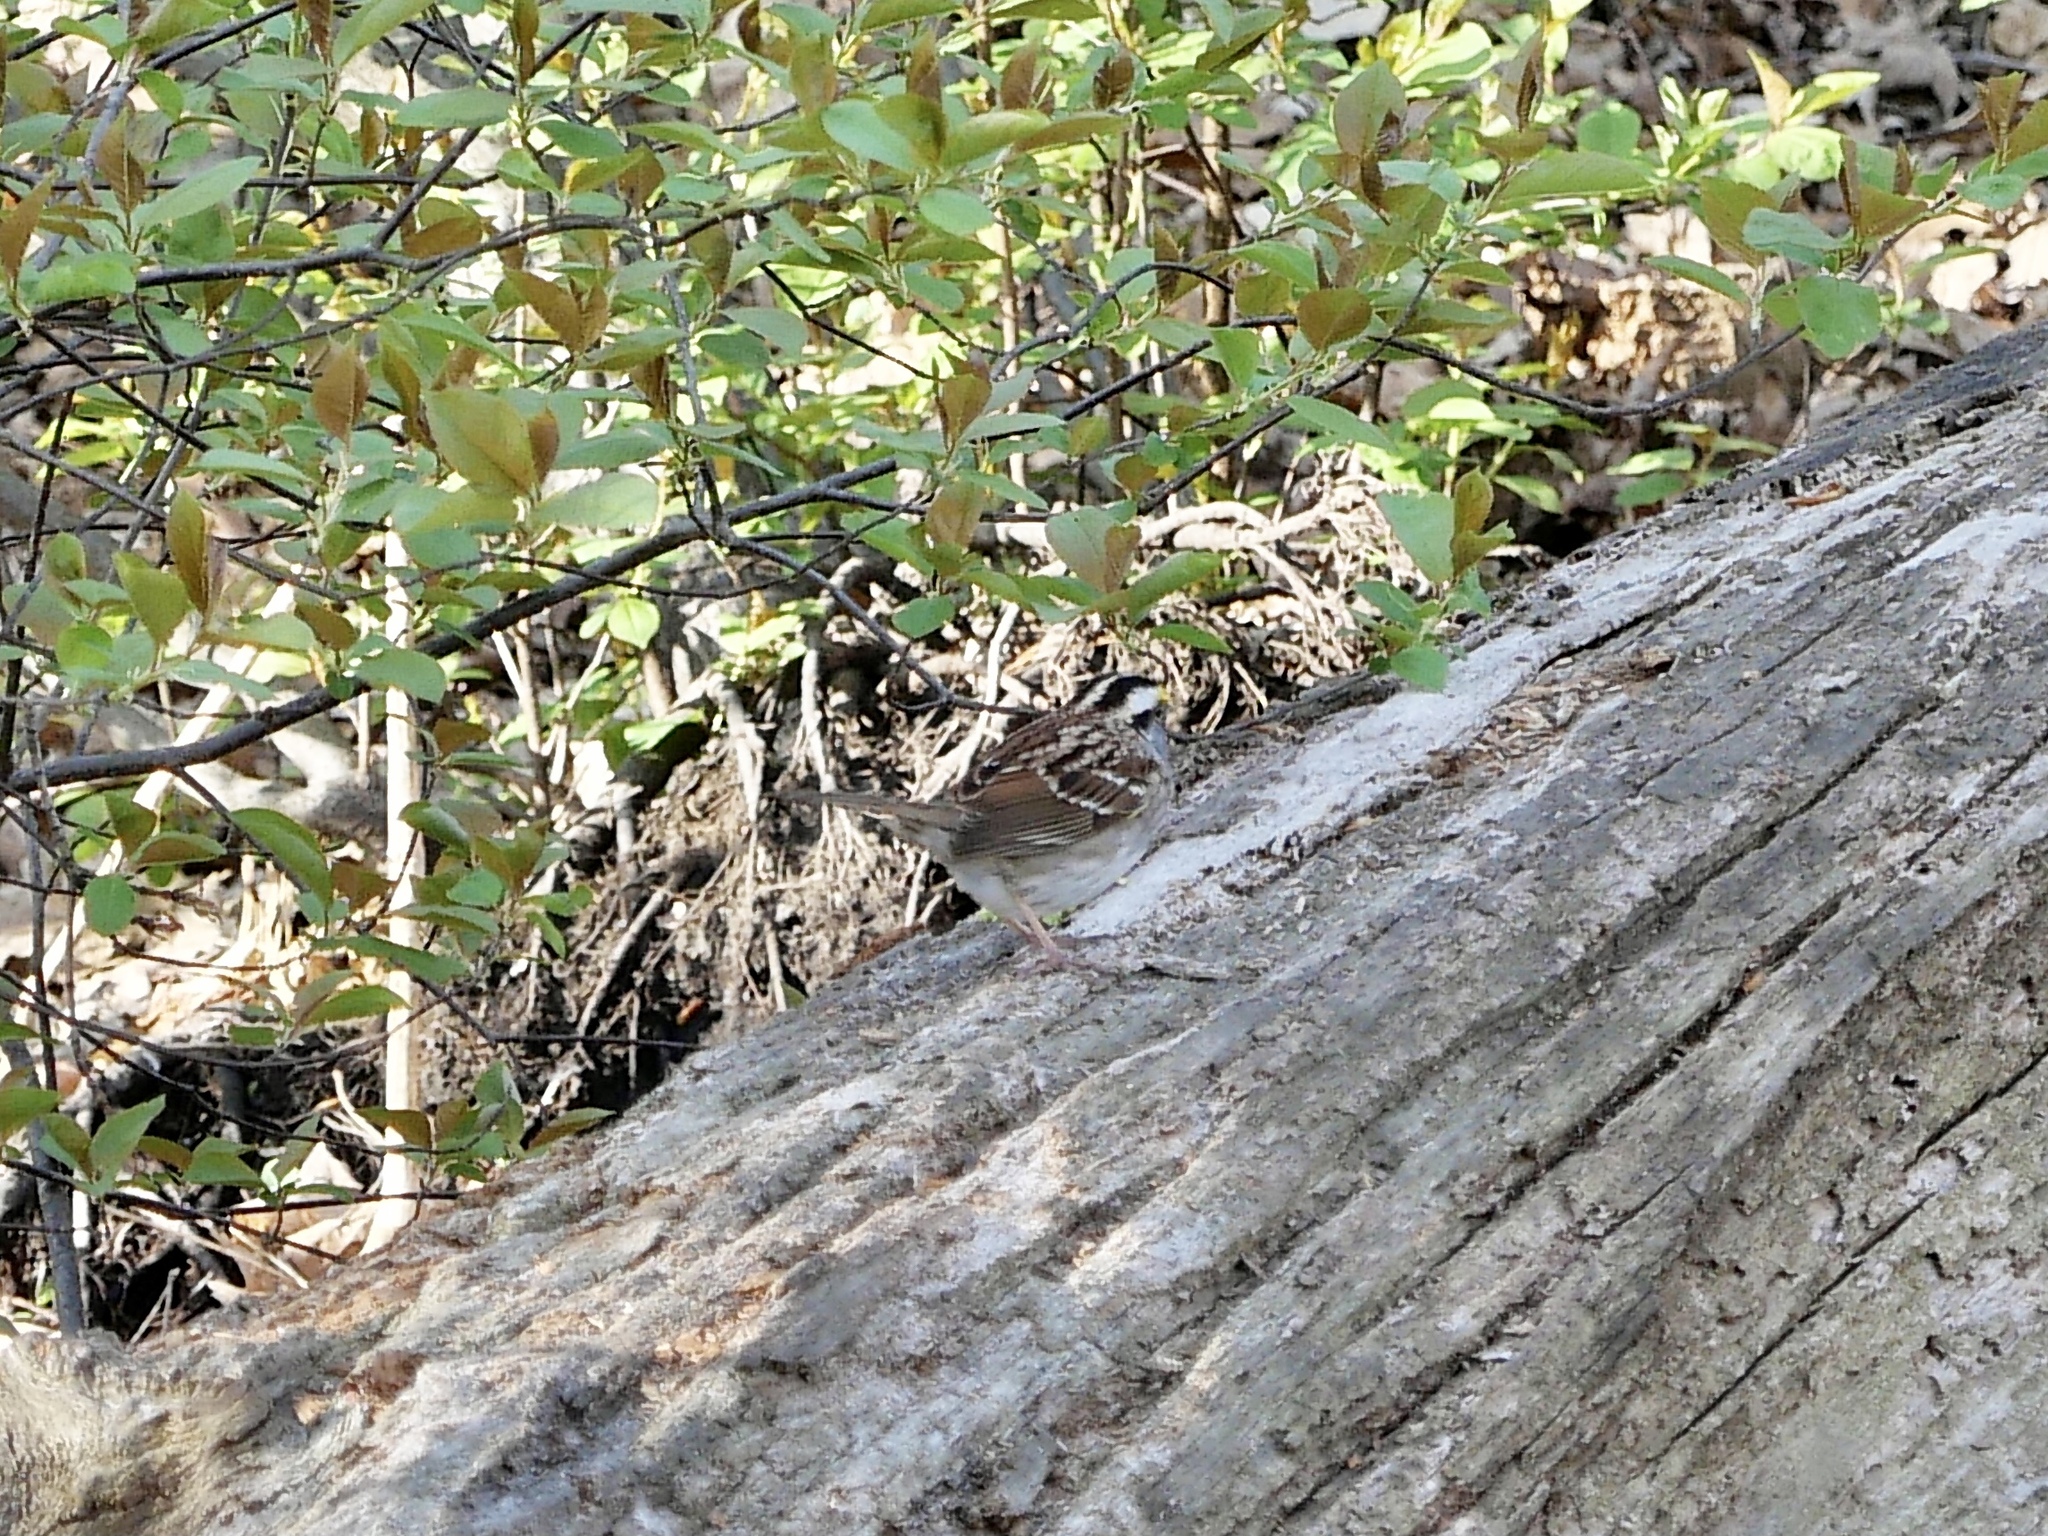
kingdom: Animalia
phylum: Chordata
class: Aves
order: Passeriformes
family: Passerellidae
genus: Zonotrichia
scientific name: Zonotrichia albicollis
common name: White-throated sparrow
